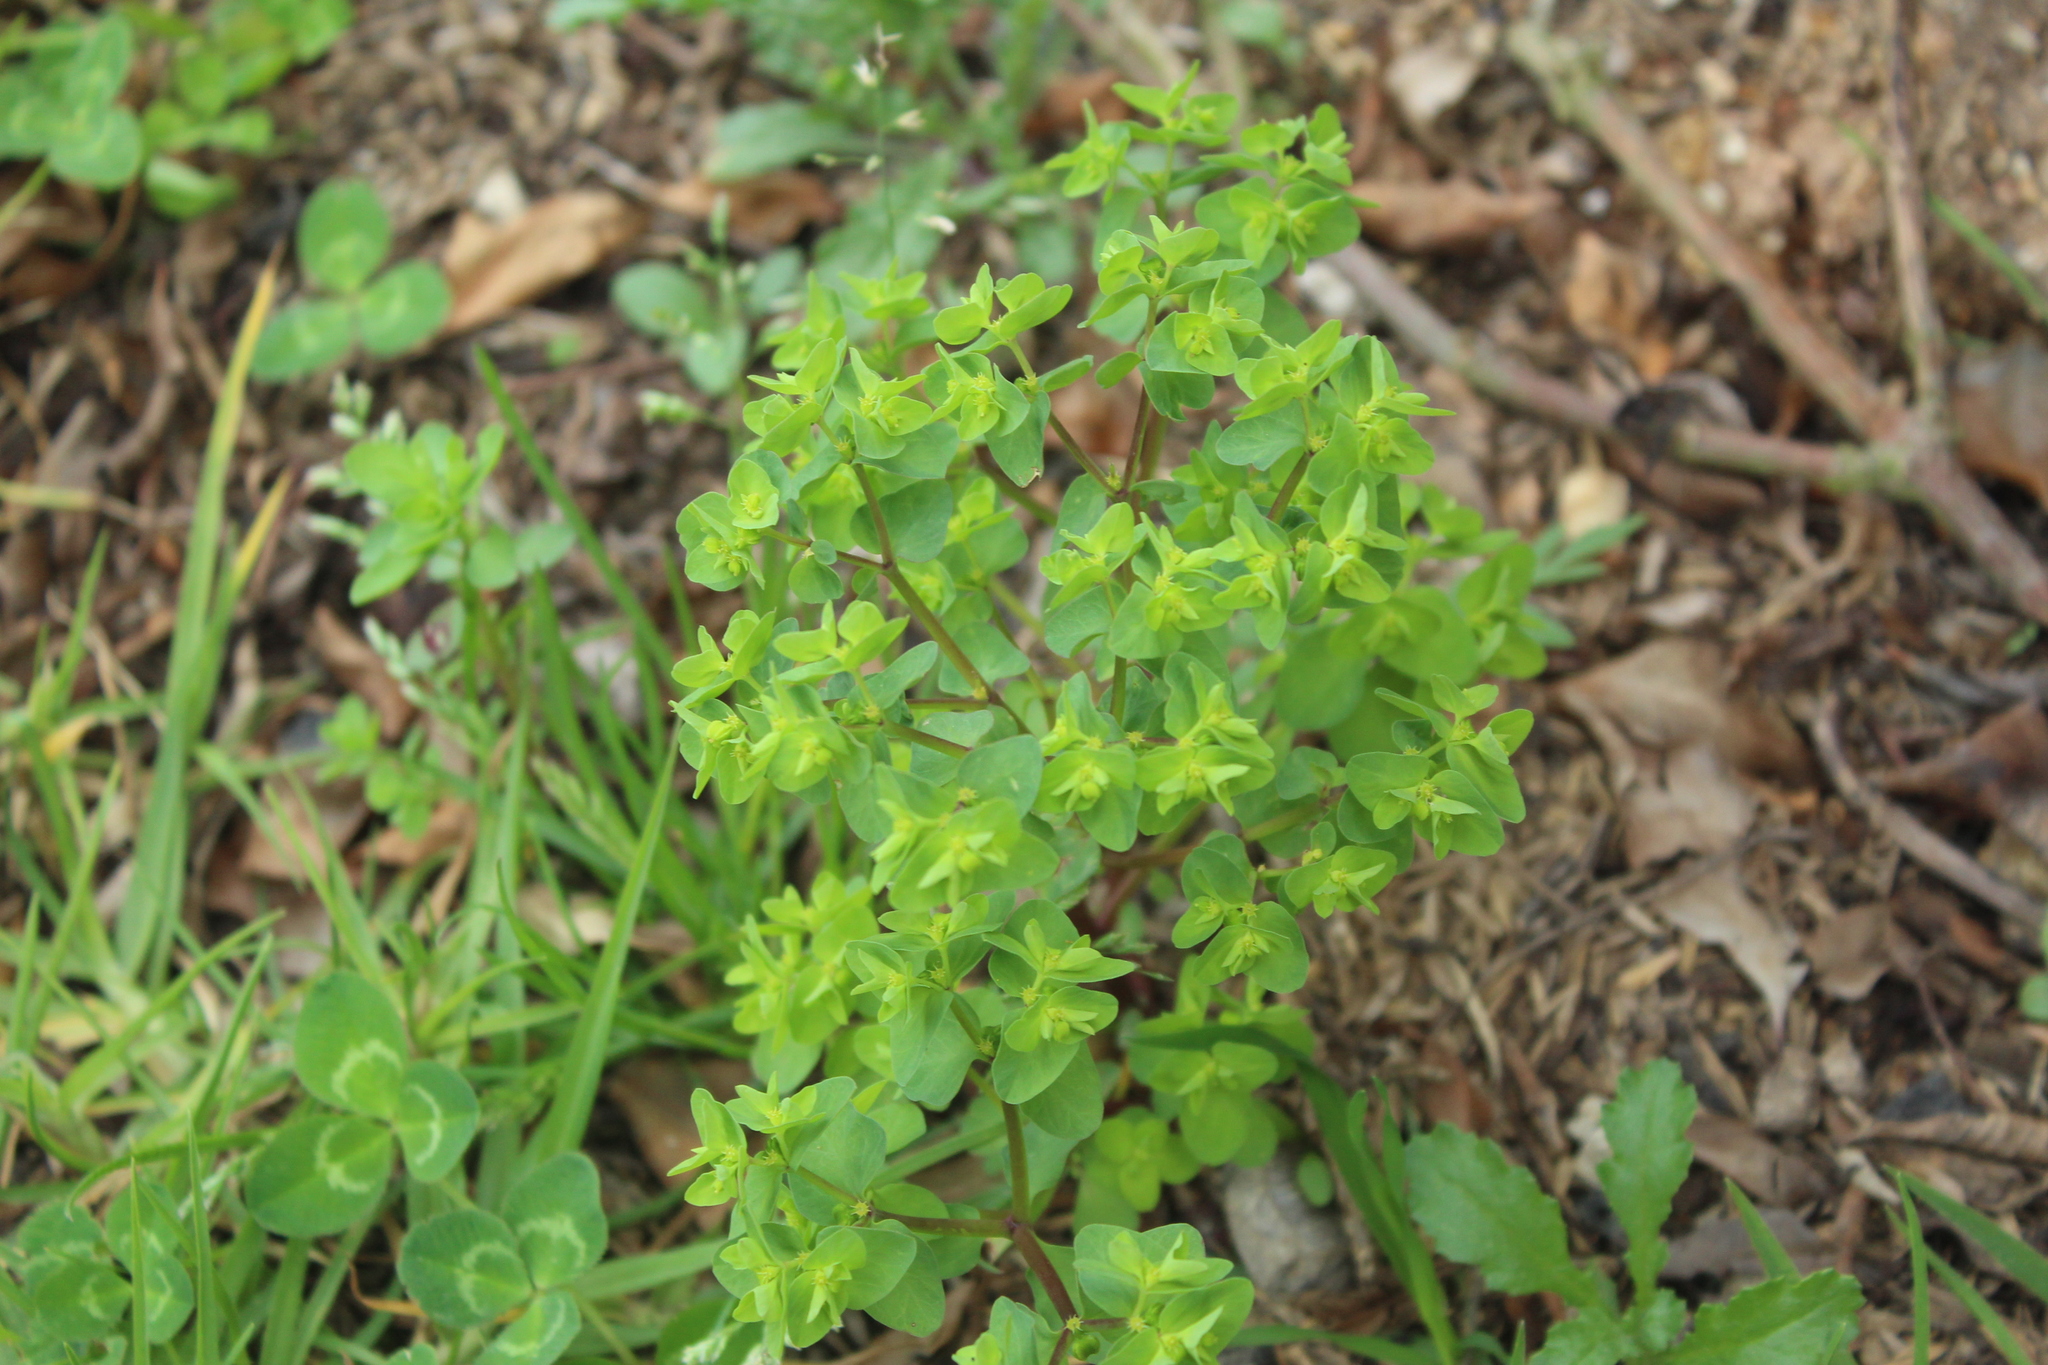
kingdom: Plantae
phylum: Tracheophyta
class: Magnoliopsida
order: Malpighiales
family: Euphorbiaceae
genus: Euphorbia
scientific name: Euphorbia peplus
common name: Petty spurge
